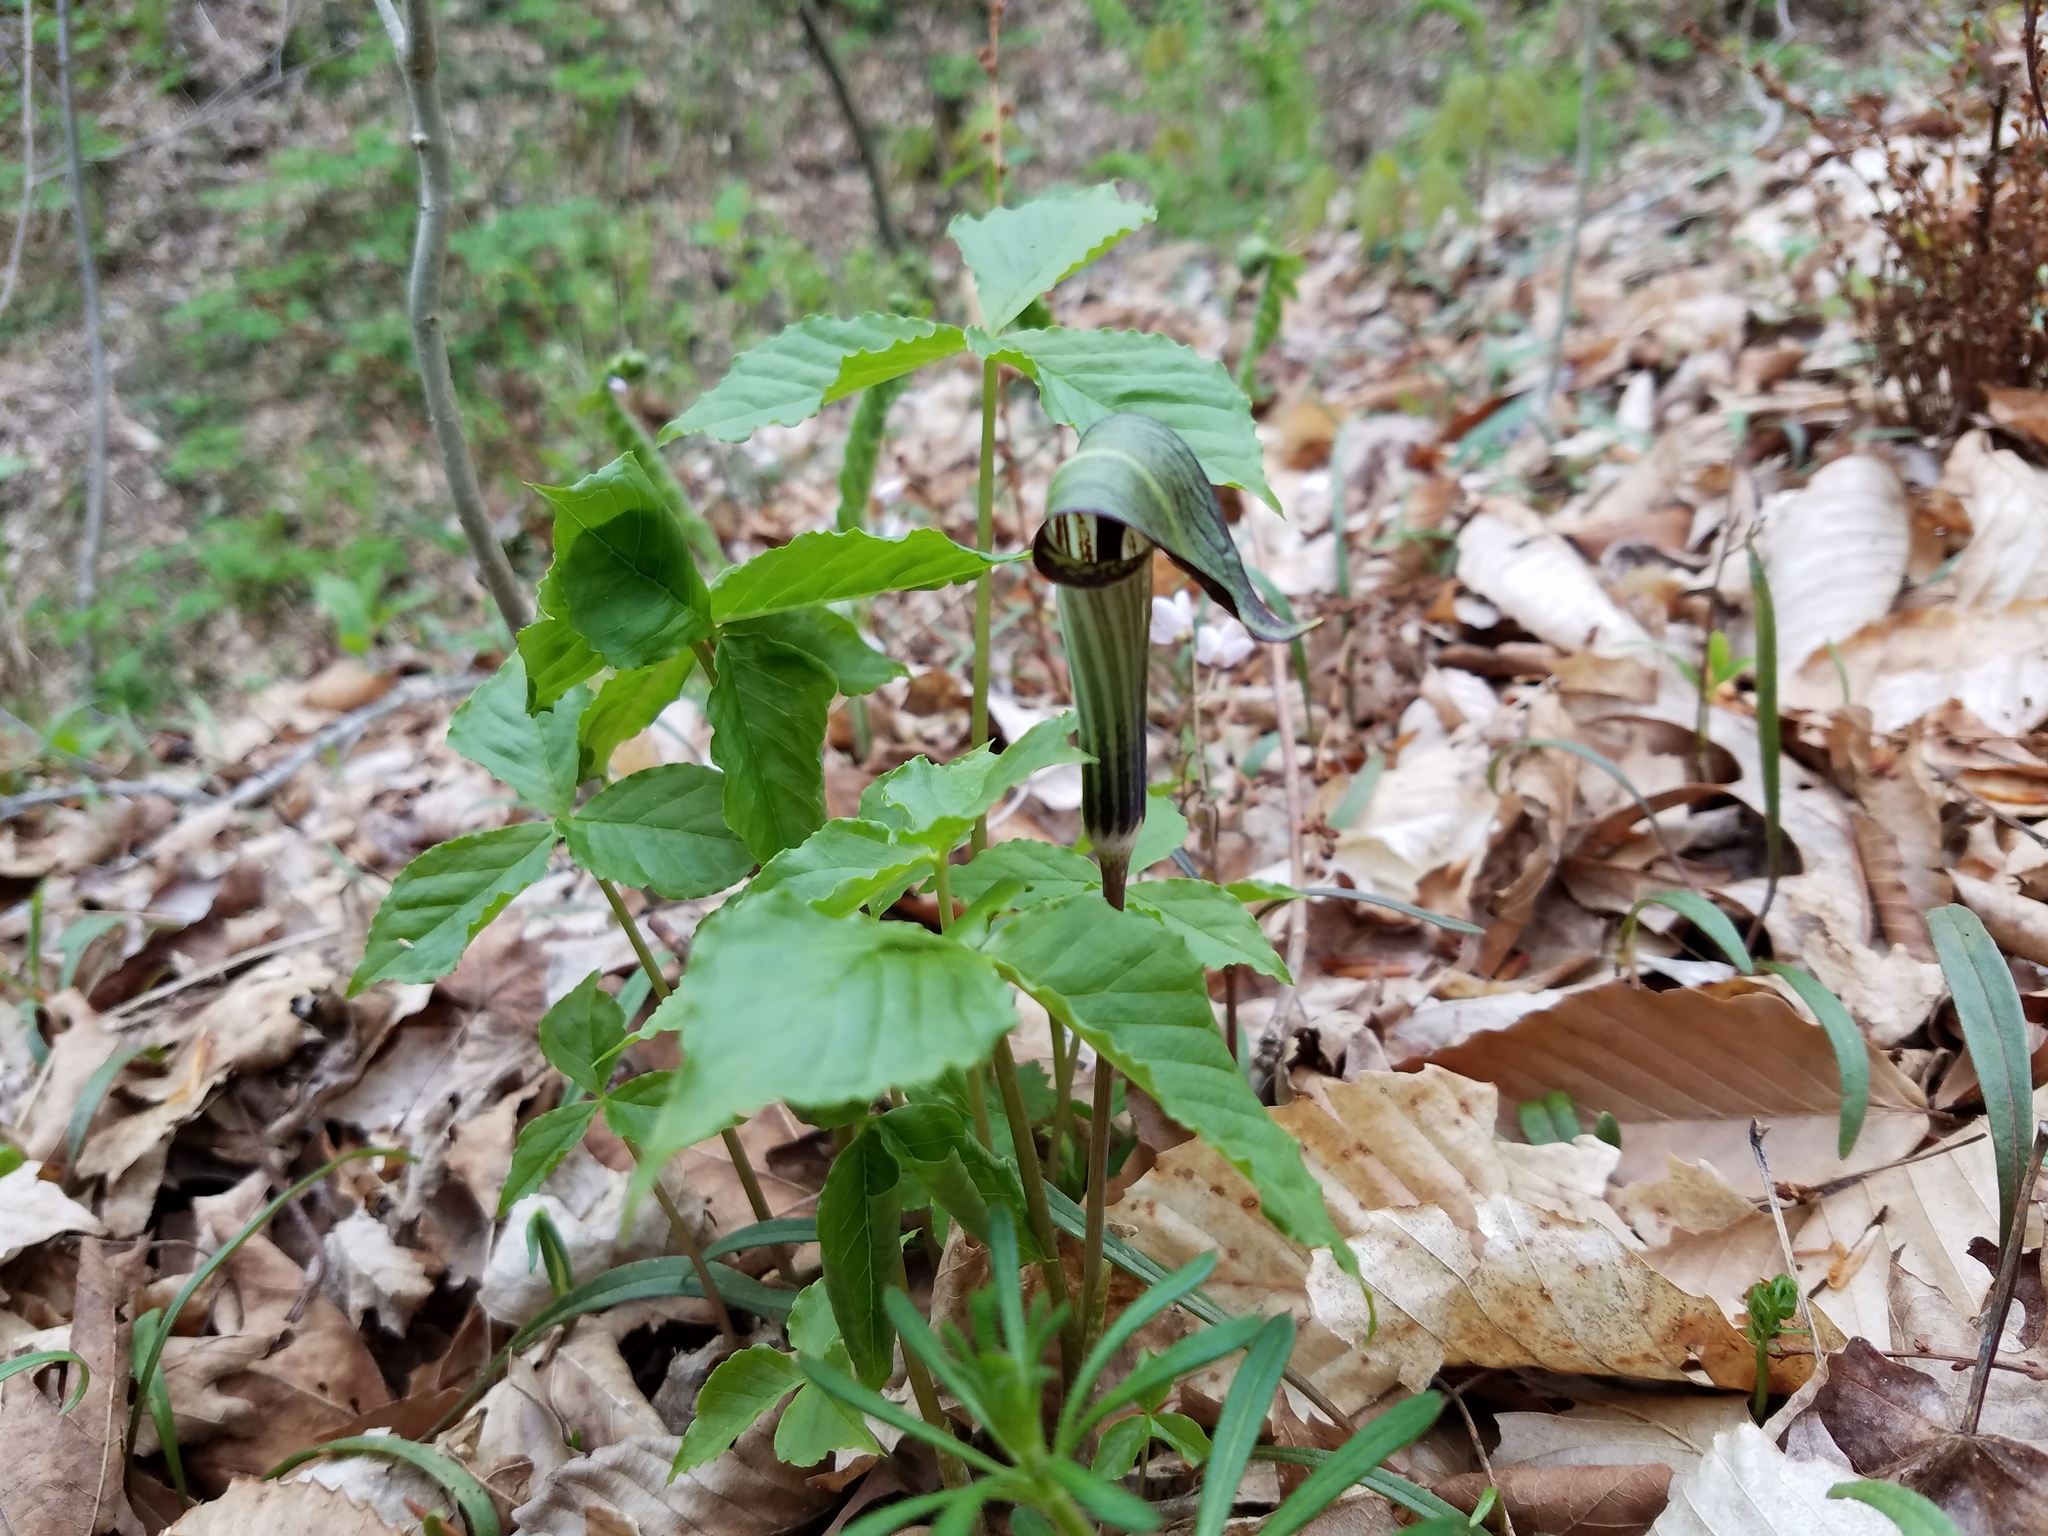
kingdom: Plantae
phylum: Tracheophyta
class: Liliopsida
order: Alismatales
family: Araceae
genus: Arisaema
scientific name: Arisaema triphyllum
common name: Jack-in-the-pulpit
